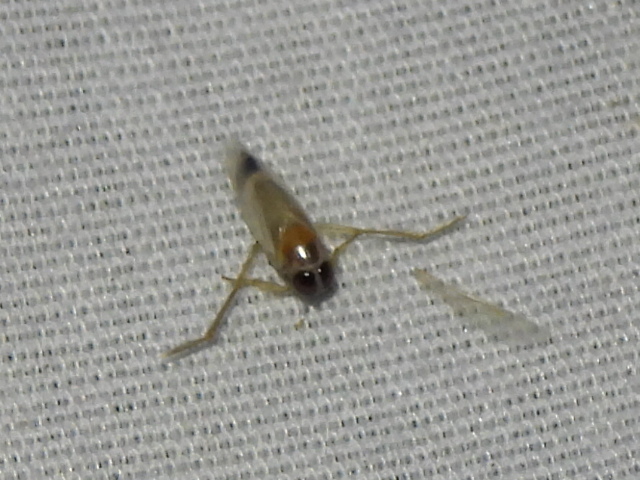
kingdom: Animalia
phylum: Arthropoda
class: Insecta
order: Hemiptera
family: Notonectidae
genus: Buenoa
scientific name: Buenoa
